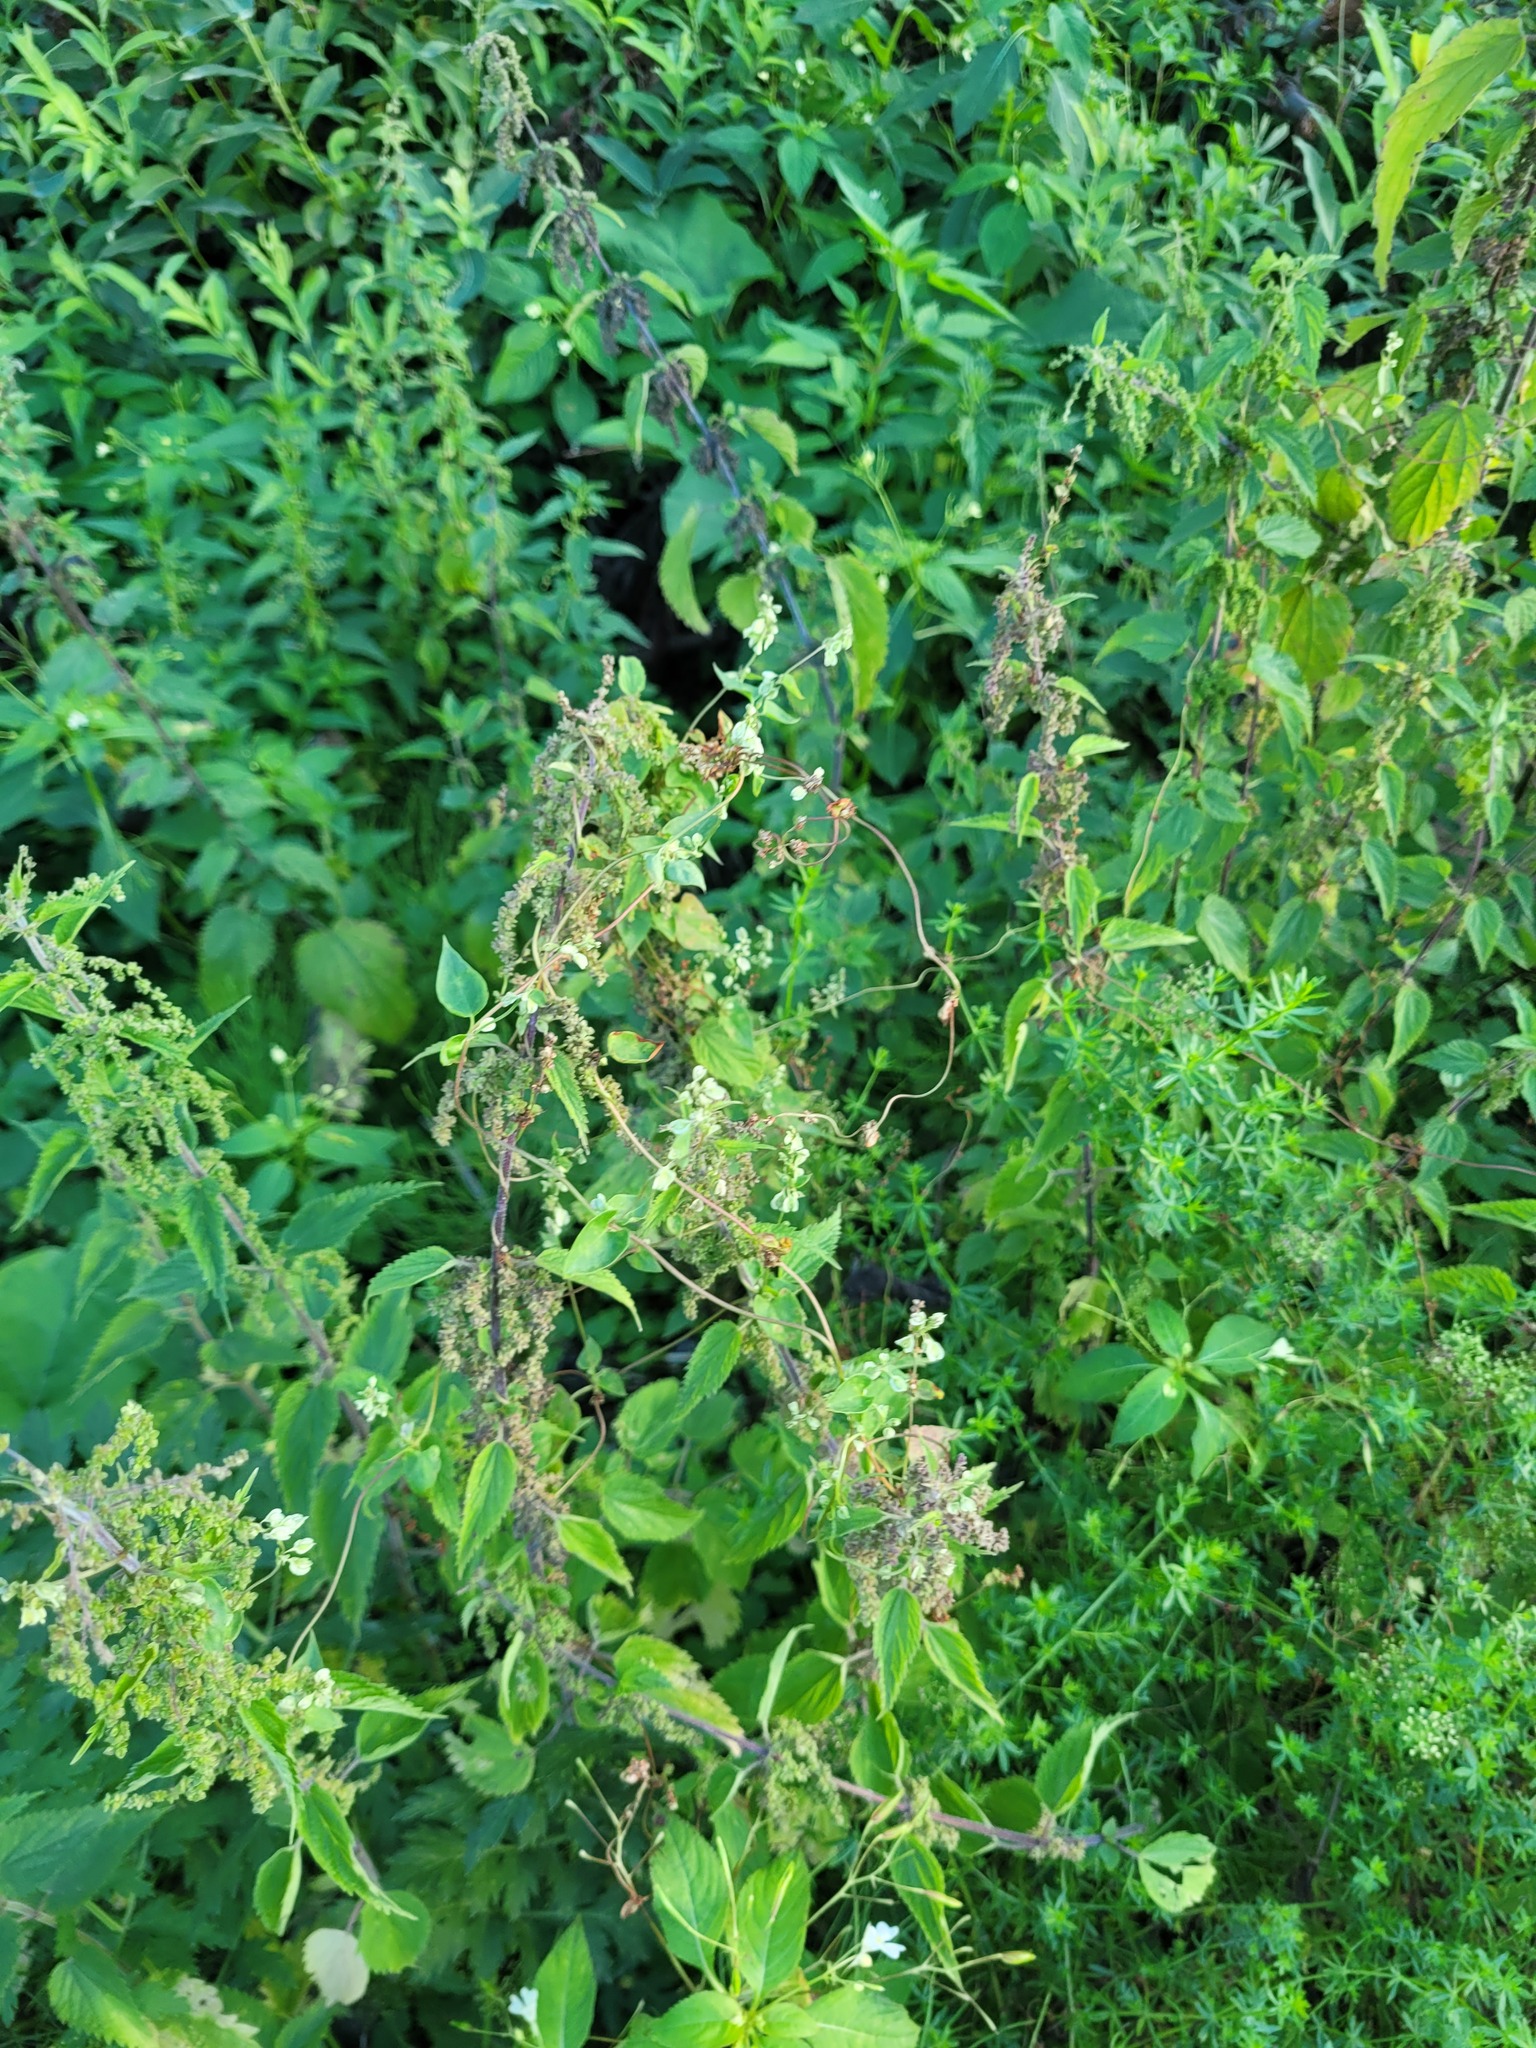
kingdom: Plantae
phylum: Tracheophyta
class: Magnoliopsida
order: Caryophyllales
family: Polygonaceae
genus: Fallopia
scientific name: Fallopia dumetorum
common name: Copse-bindweed
